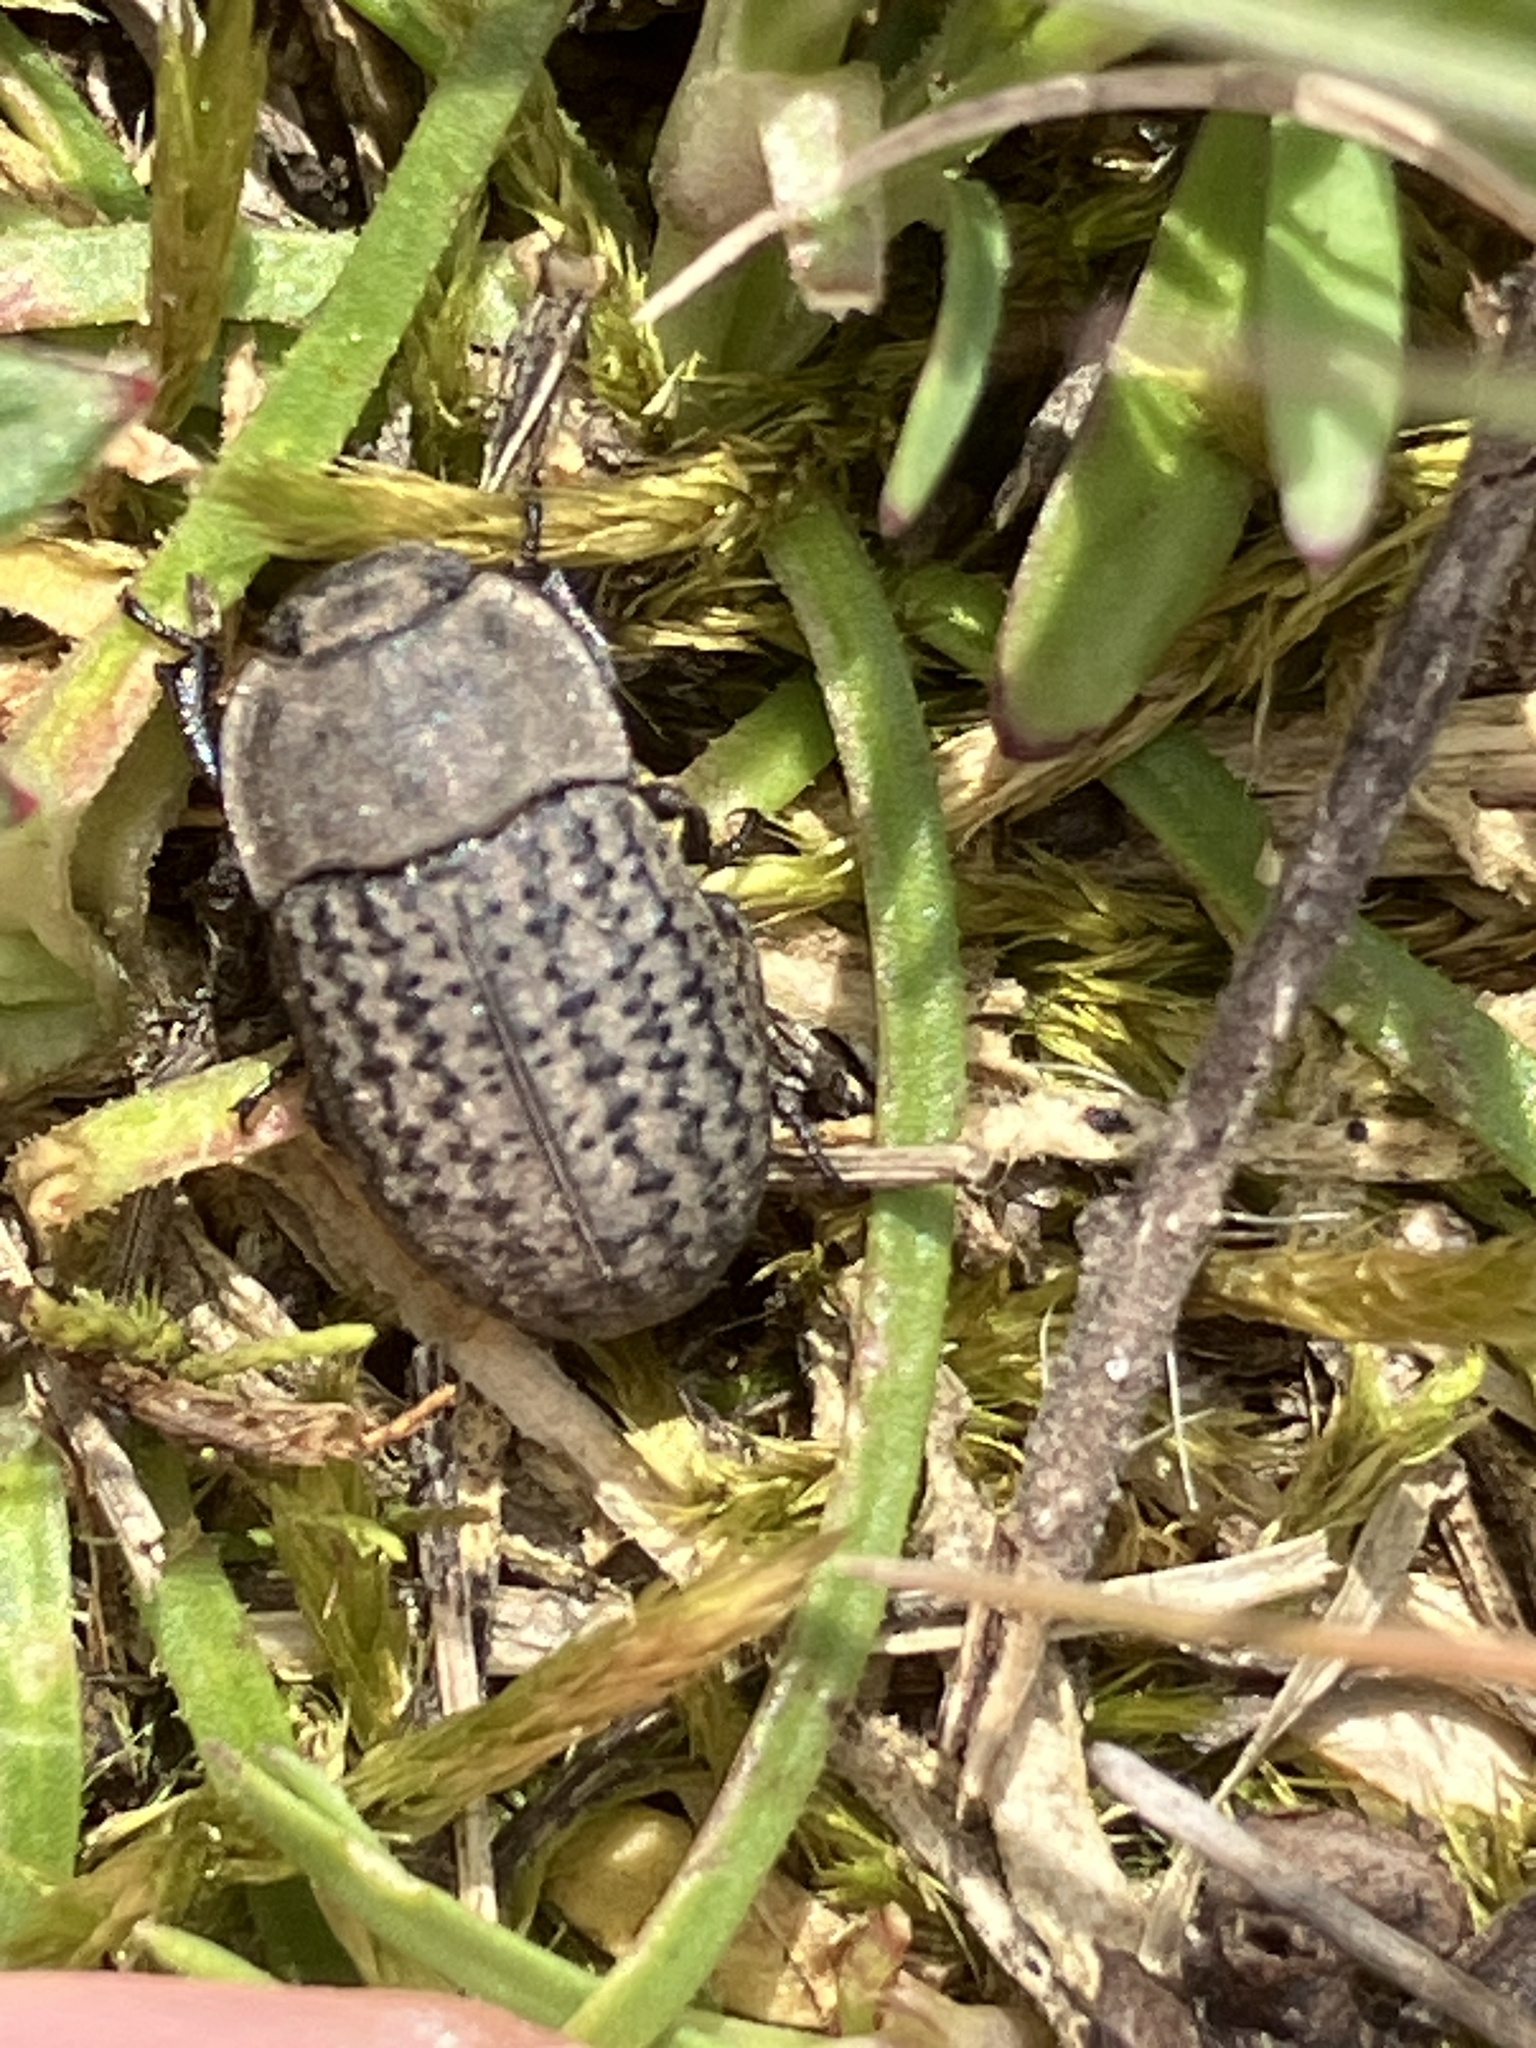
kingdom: Animalia
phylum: Arthropoda
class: Insecta
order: Coleoptera
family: Tenebrionidae
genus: Opatrum
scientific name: Opatrum sabulosum
